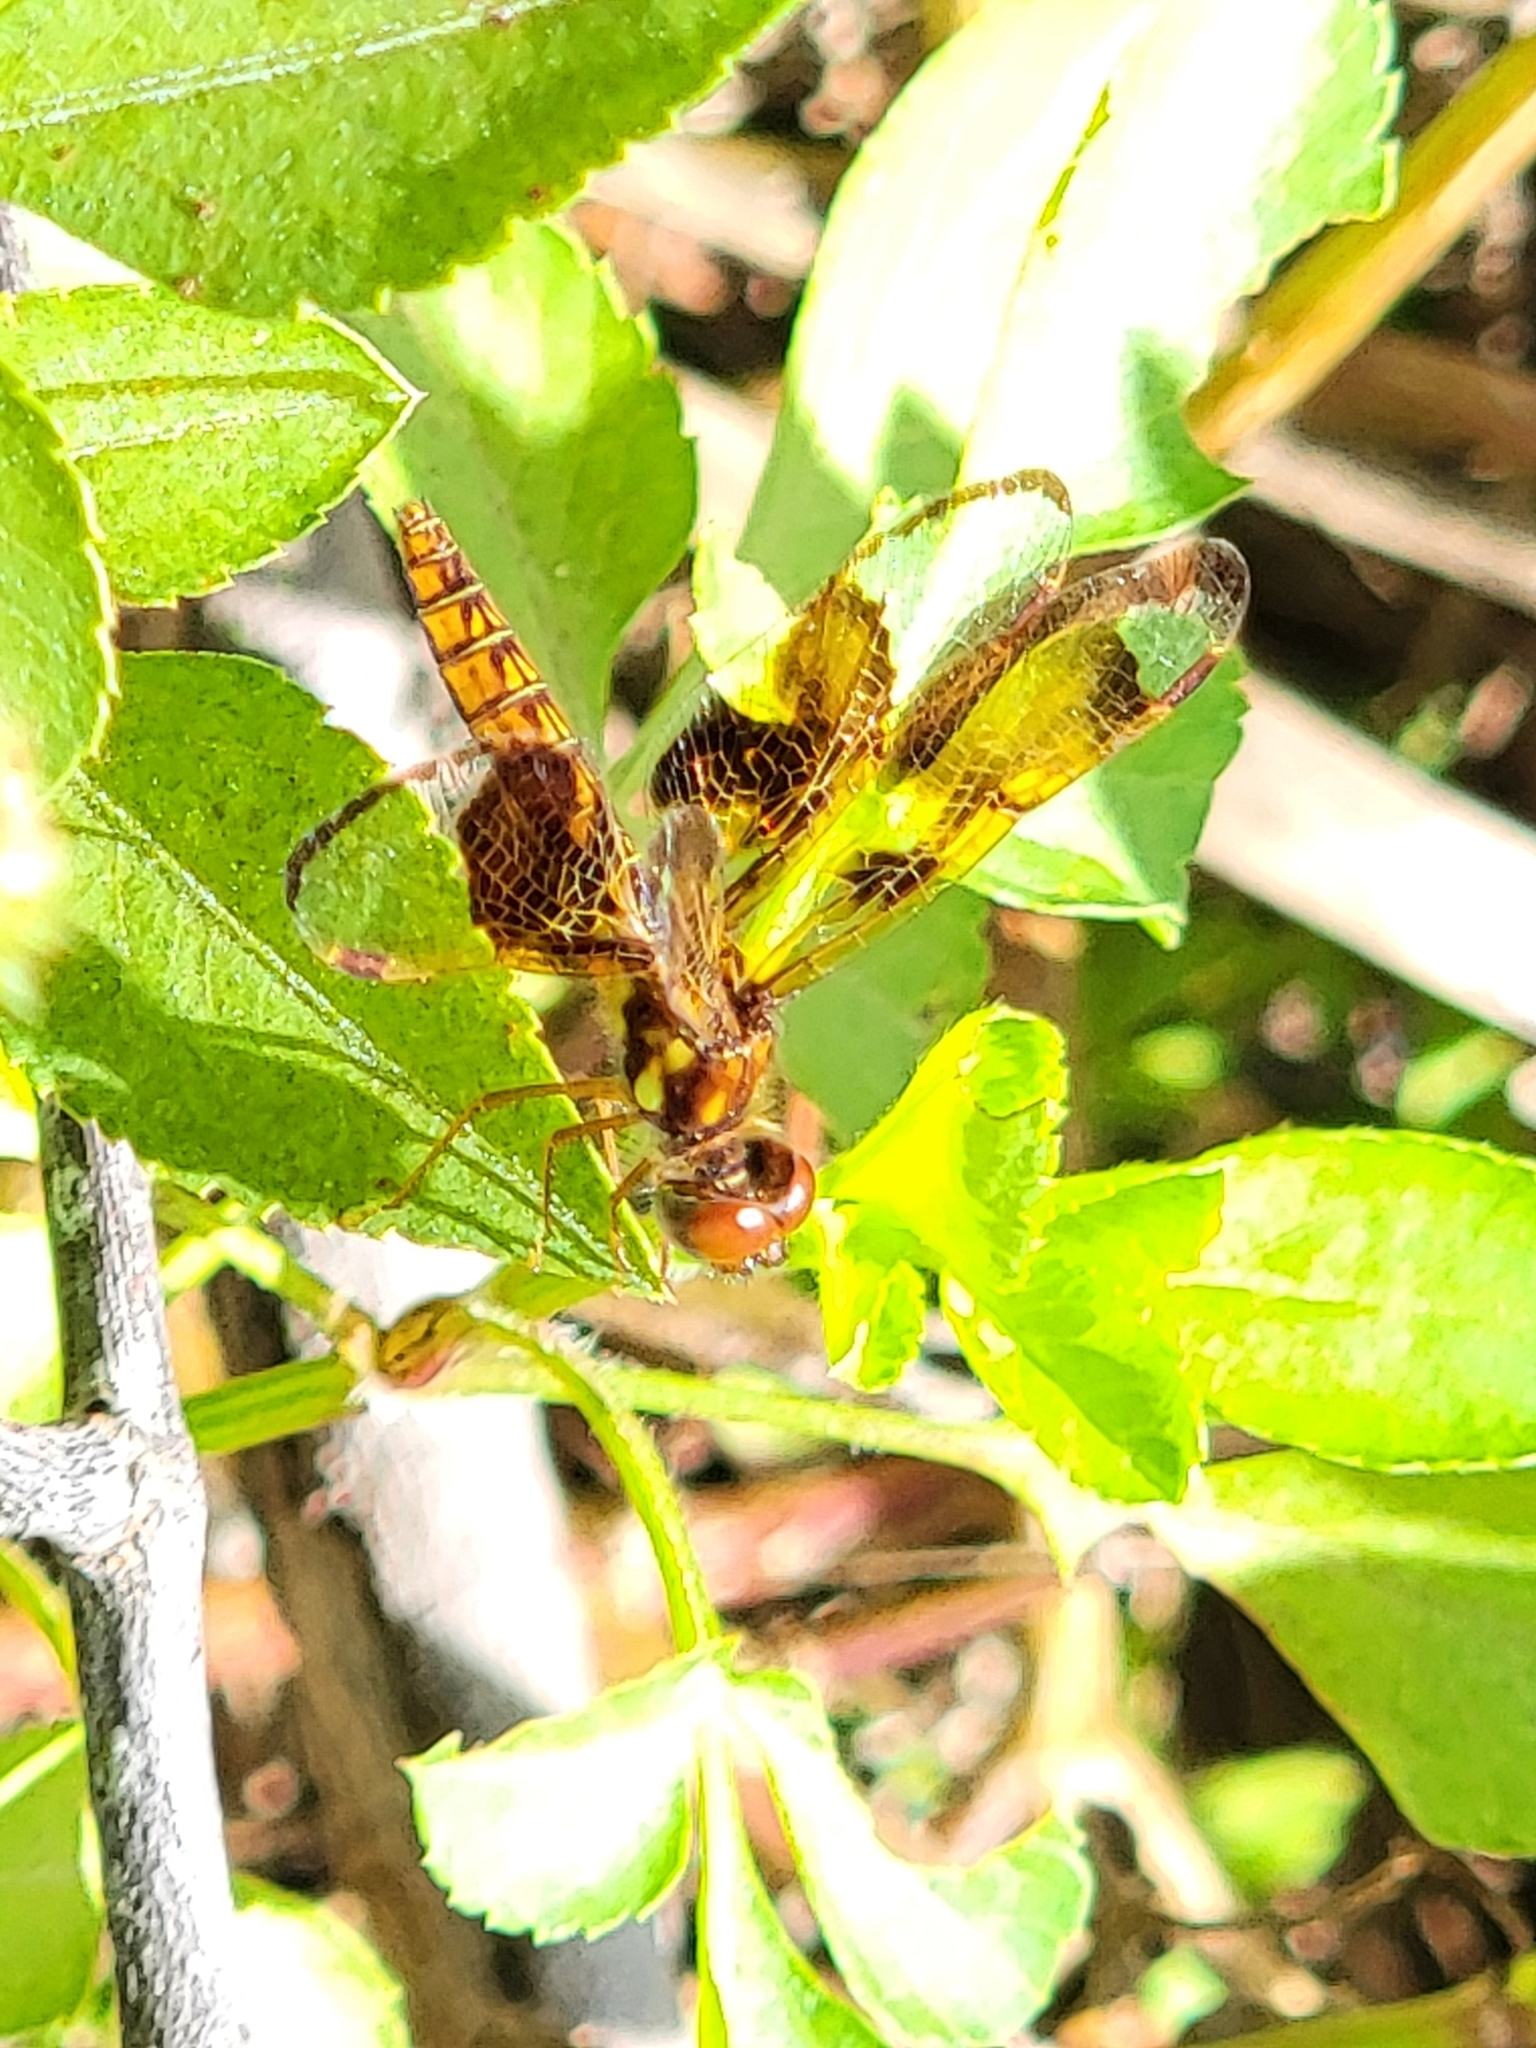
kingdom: Animalia
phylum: Arthropoda
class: Insecta
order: Odonata
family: Libellulidae
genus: Perithemis
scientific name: Perithemis tenera
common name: Eastern amberwing
